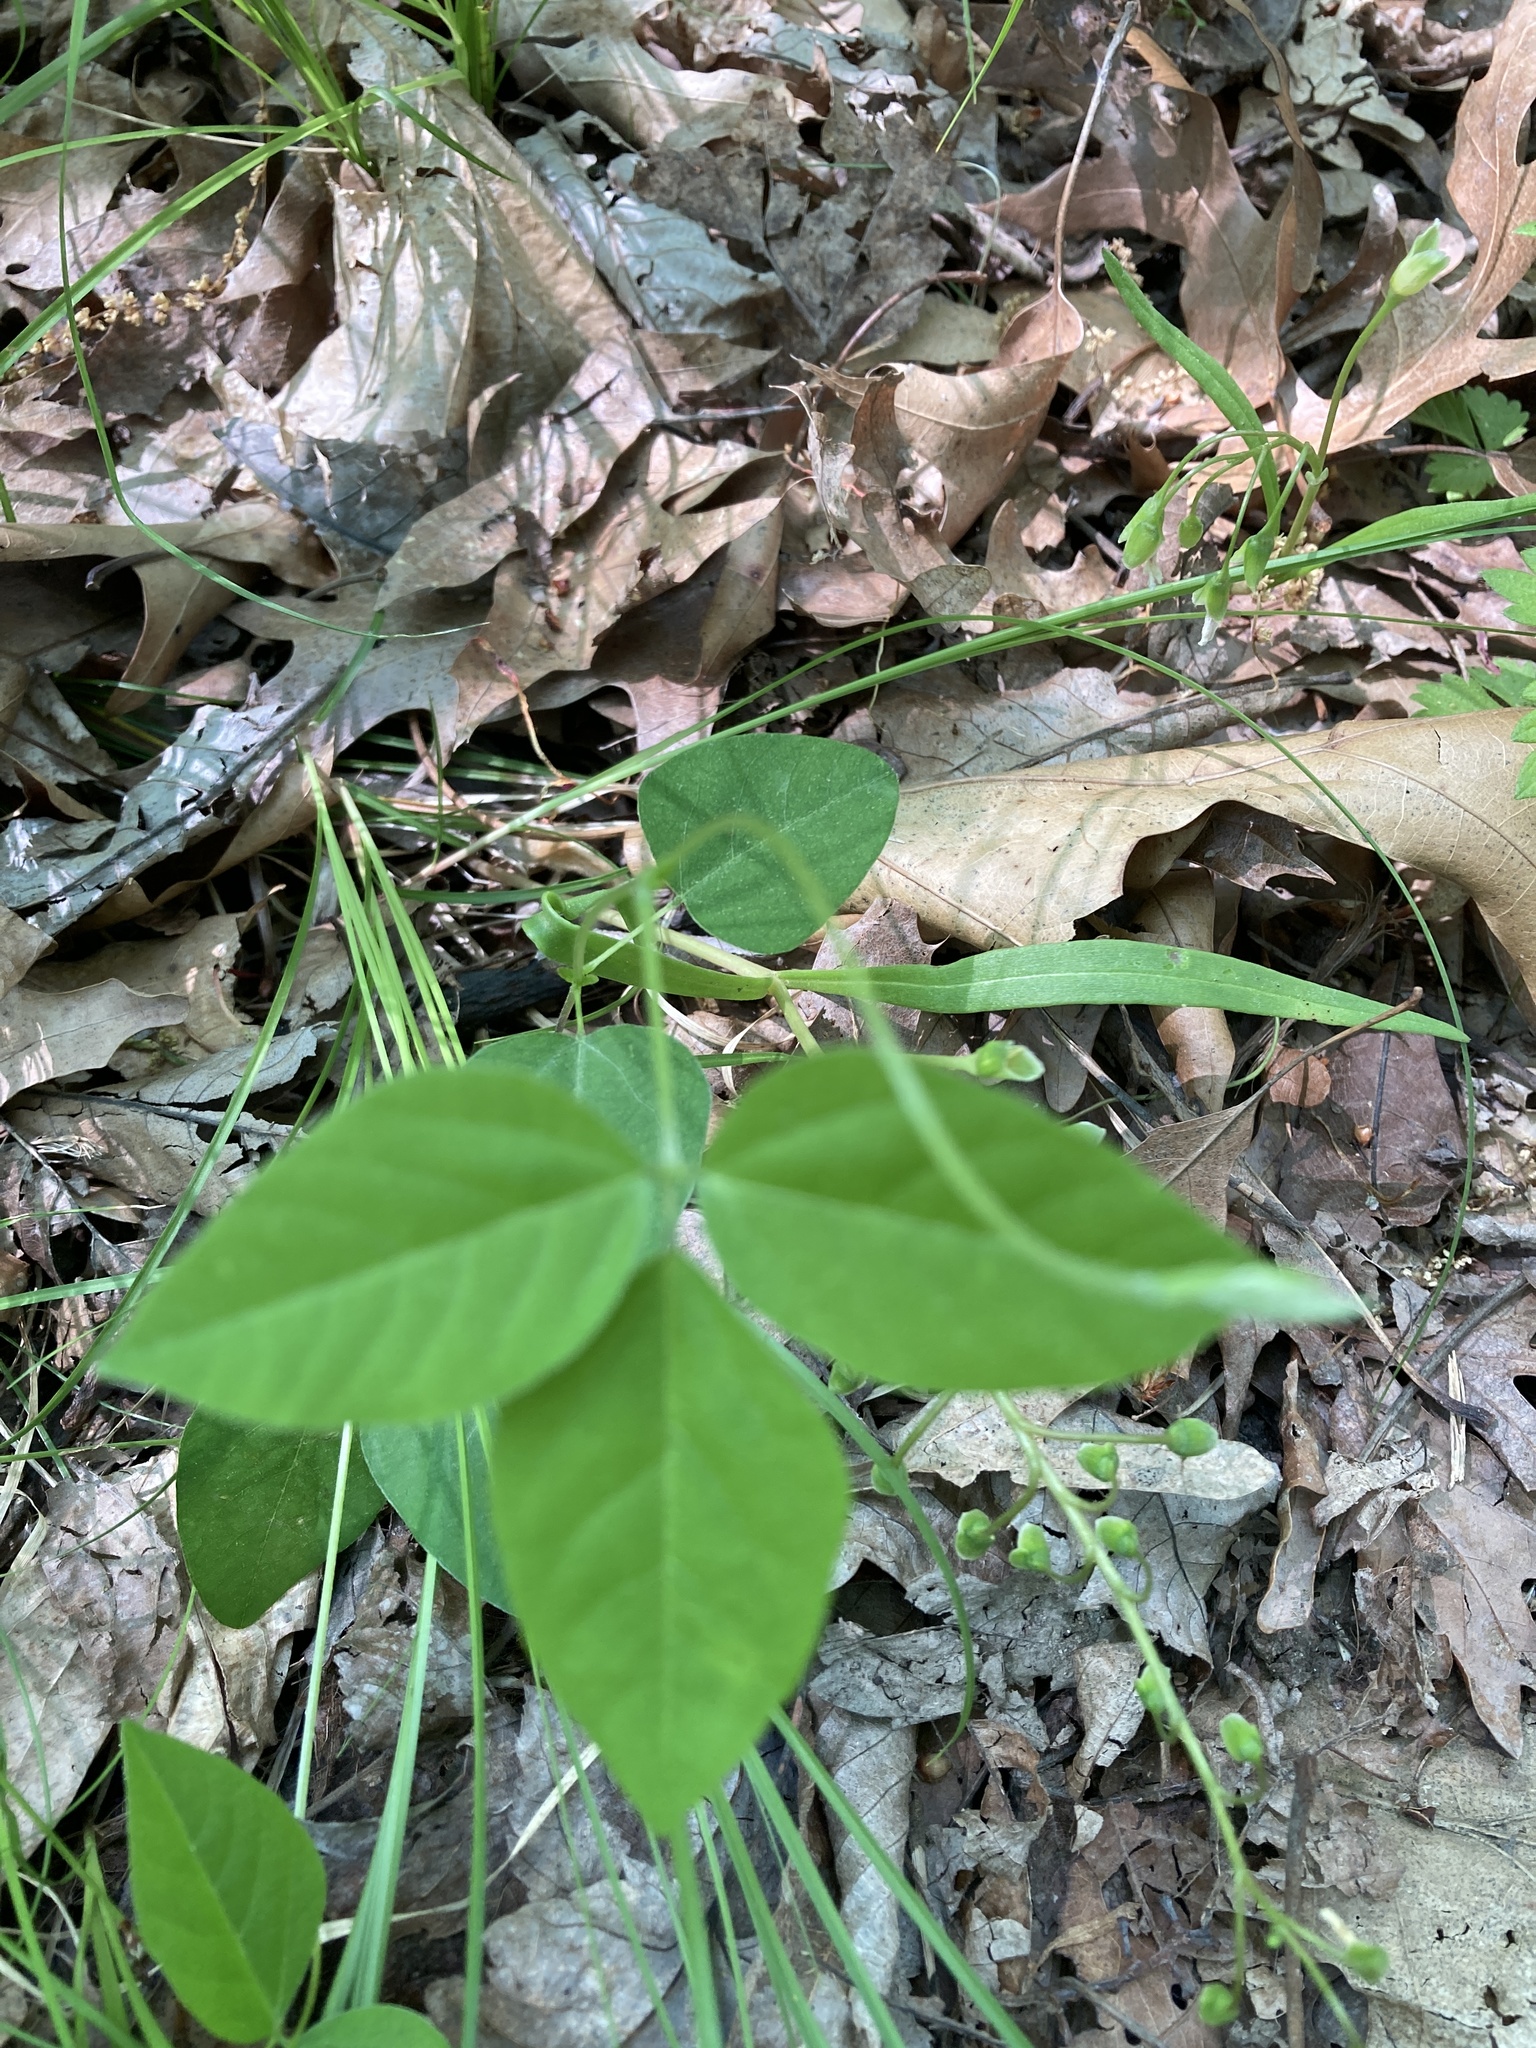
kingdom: Plantae
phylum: Tracheophyta
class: Magnoliopsida
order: Fabales
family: Fabaceae
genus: Amphicarpaea
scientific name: Amphicarpaea bracteata
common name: American hog peanut
